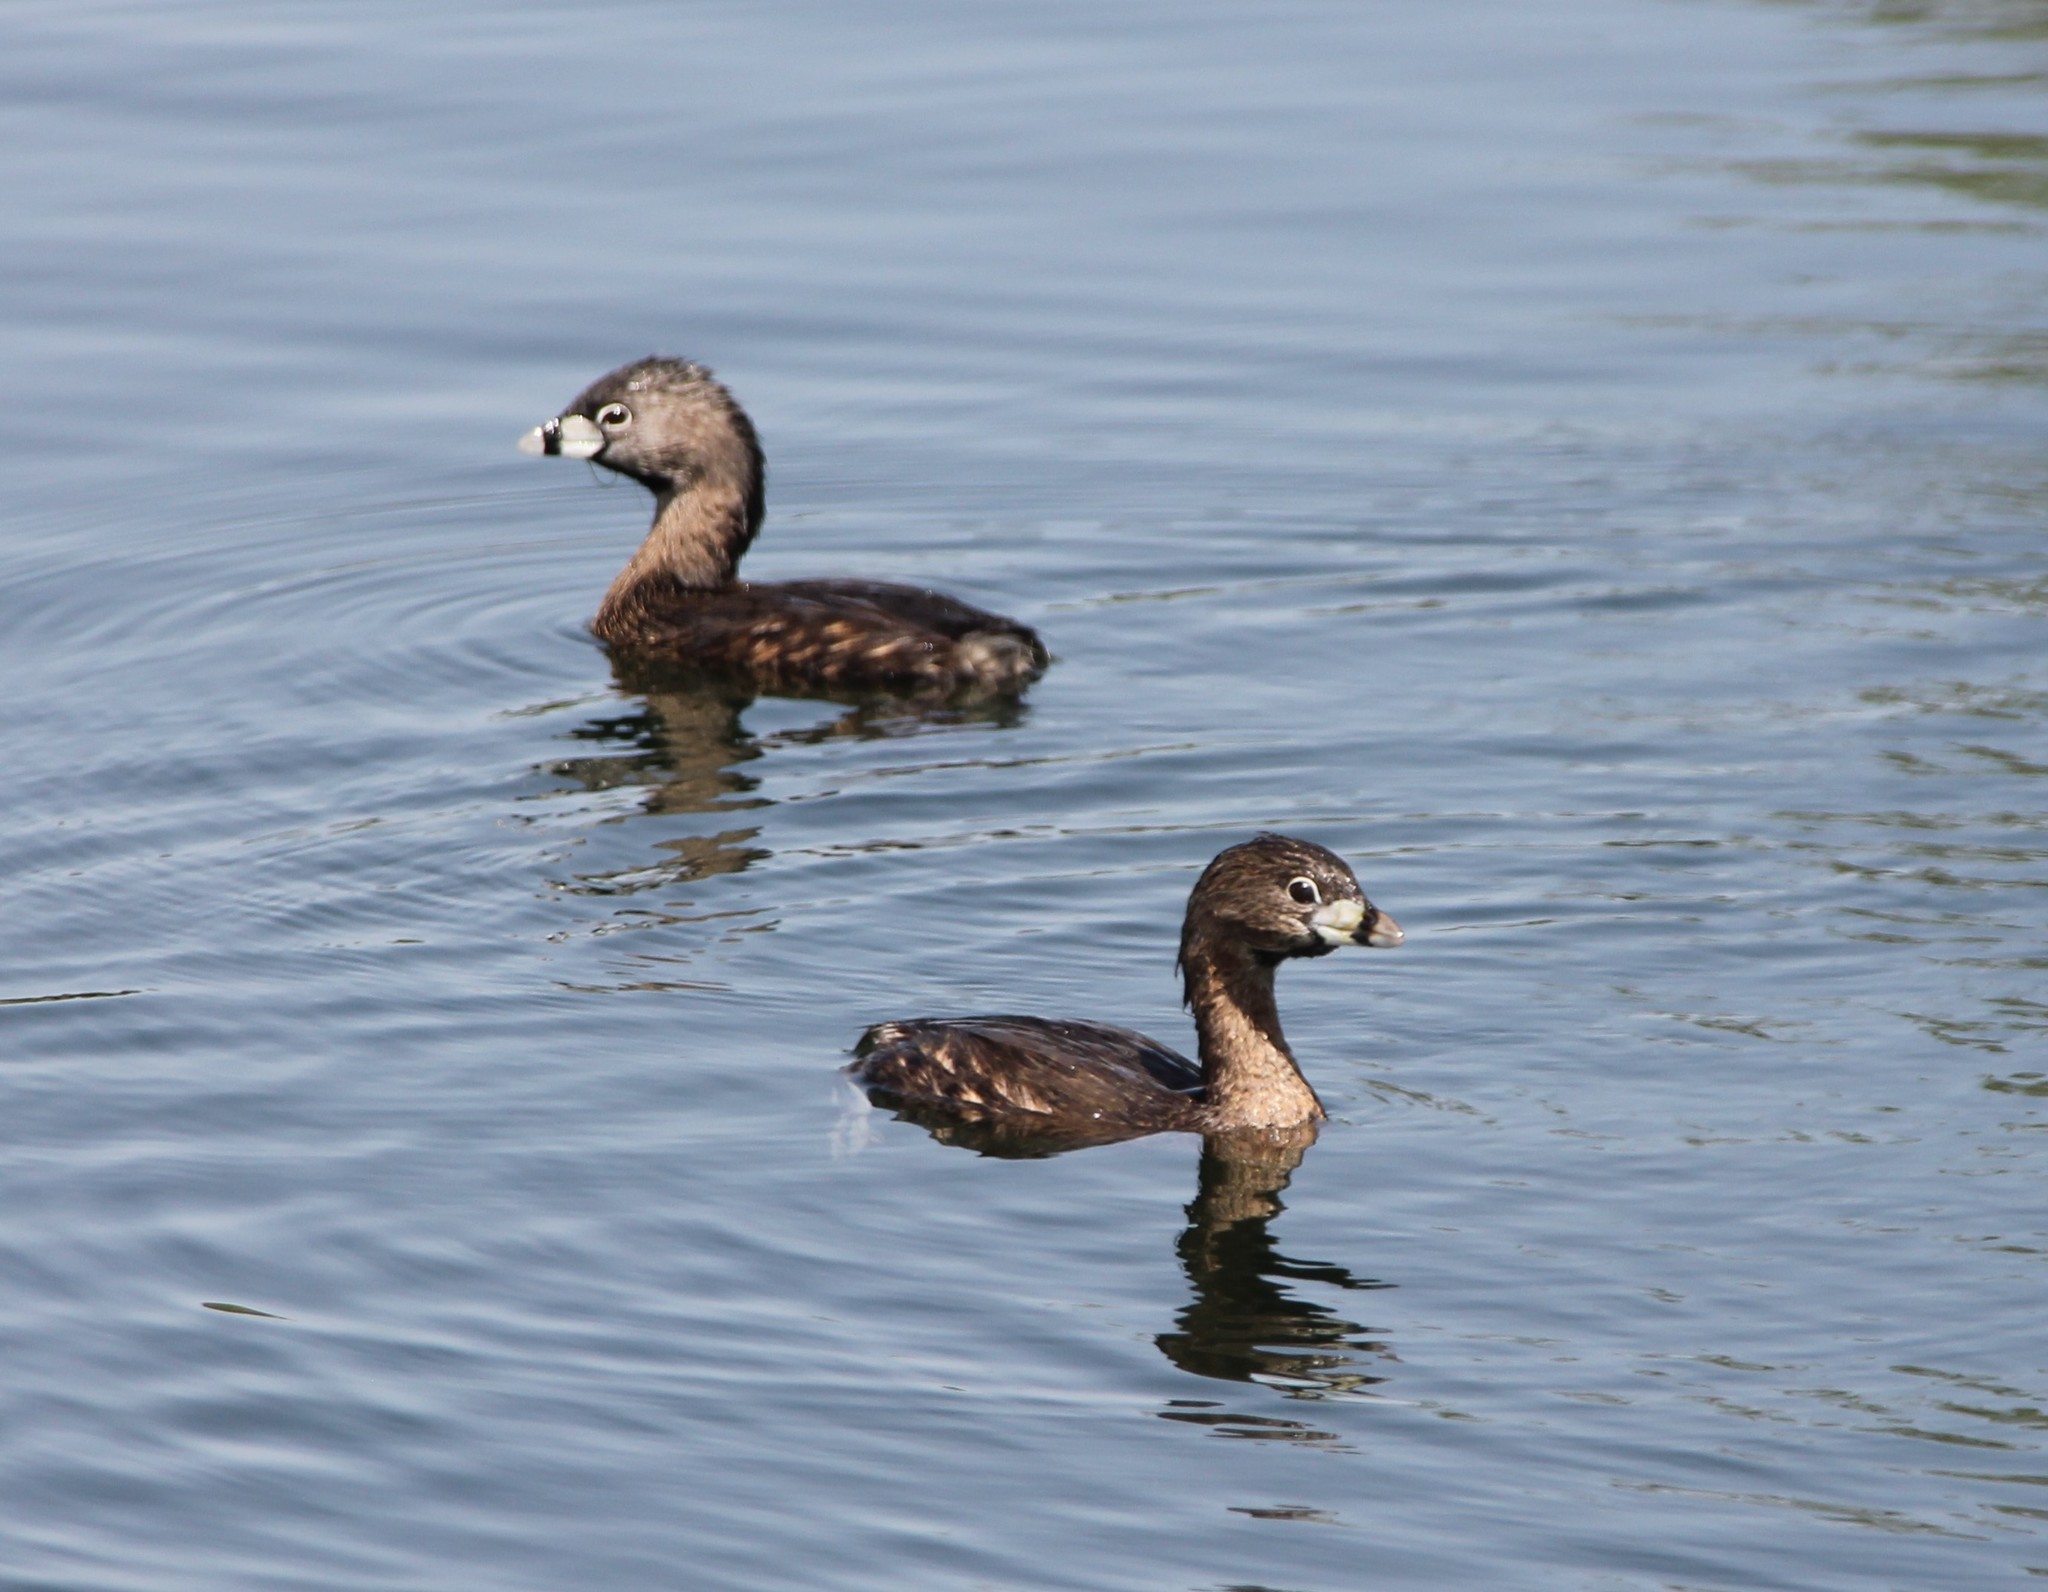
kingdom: Animalia
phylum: Chordata
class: Aves
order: Podicipediformes
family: Podicipedidae
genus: Podilymbus
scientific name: Podilymbus podiceps
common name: Pied-billed grebe
